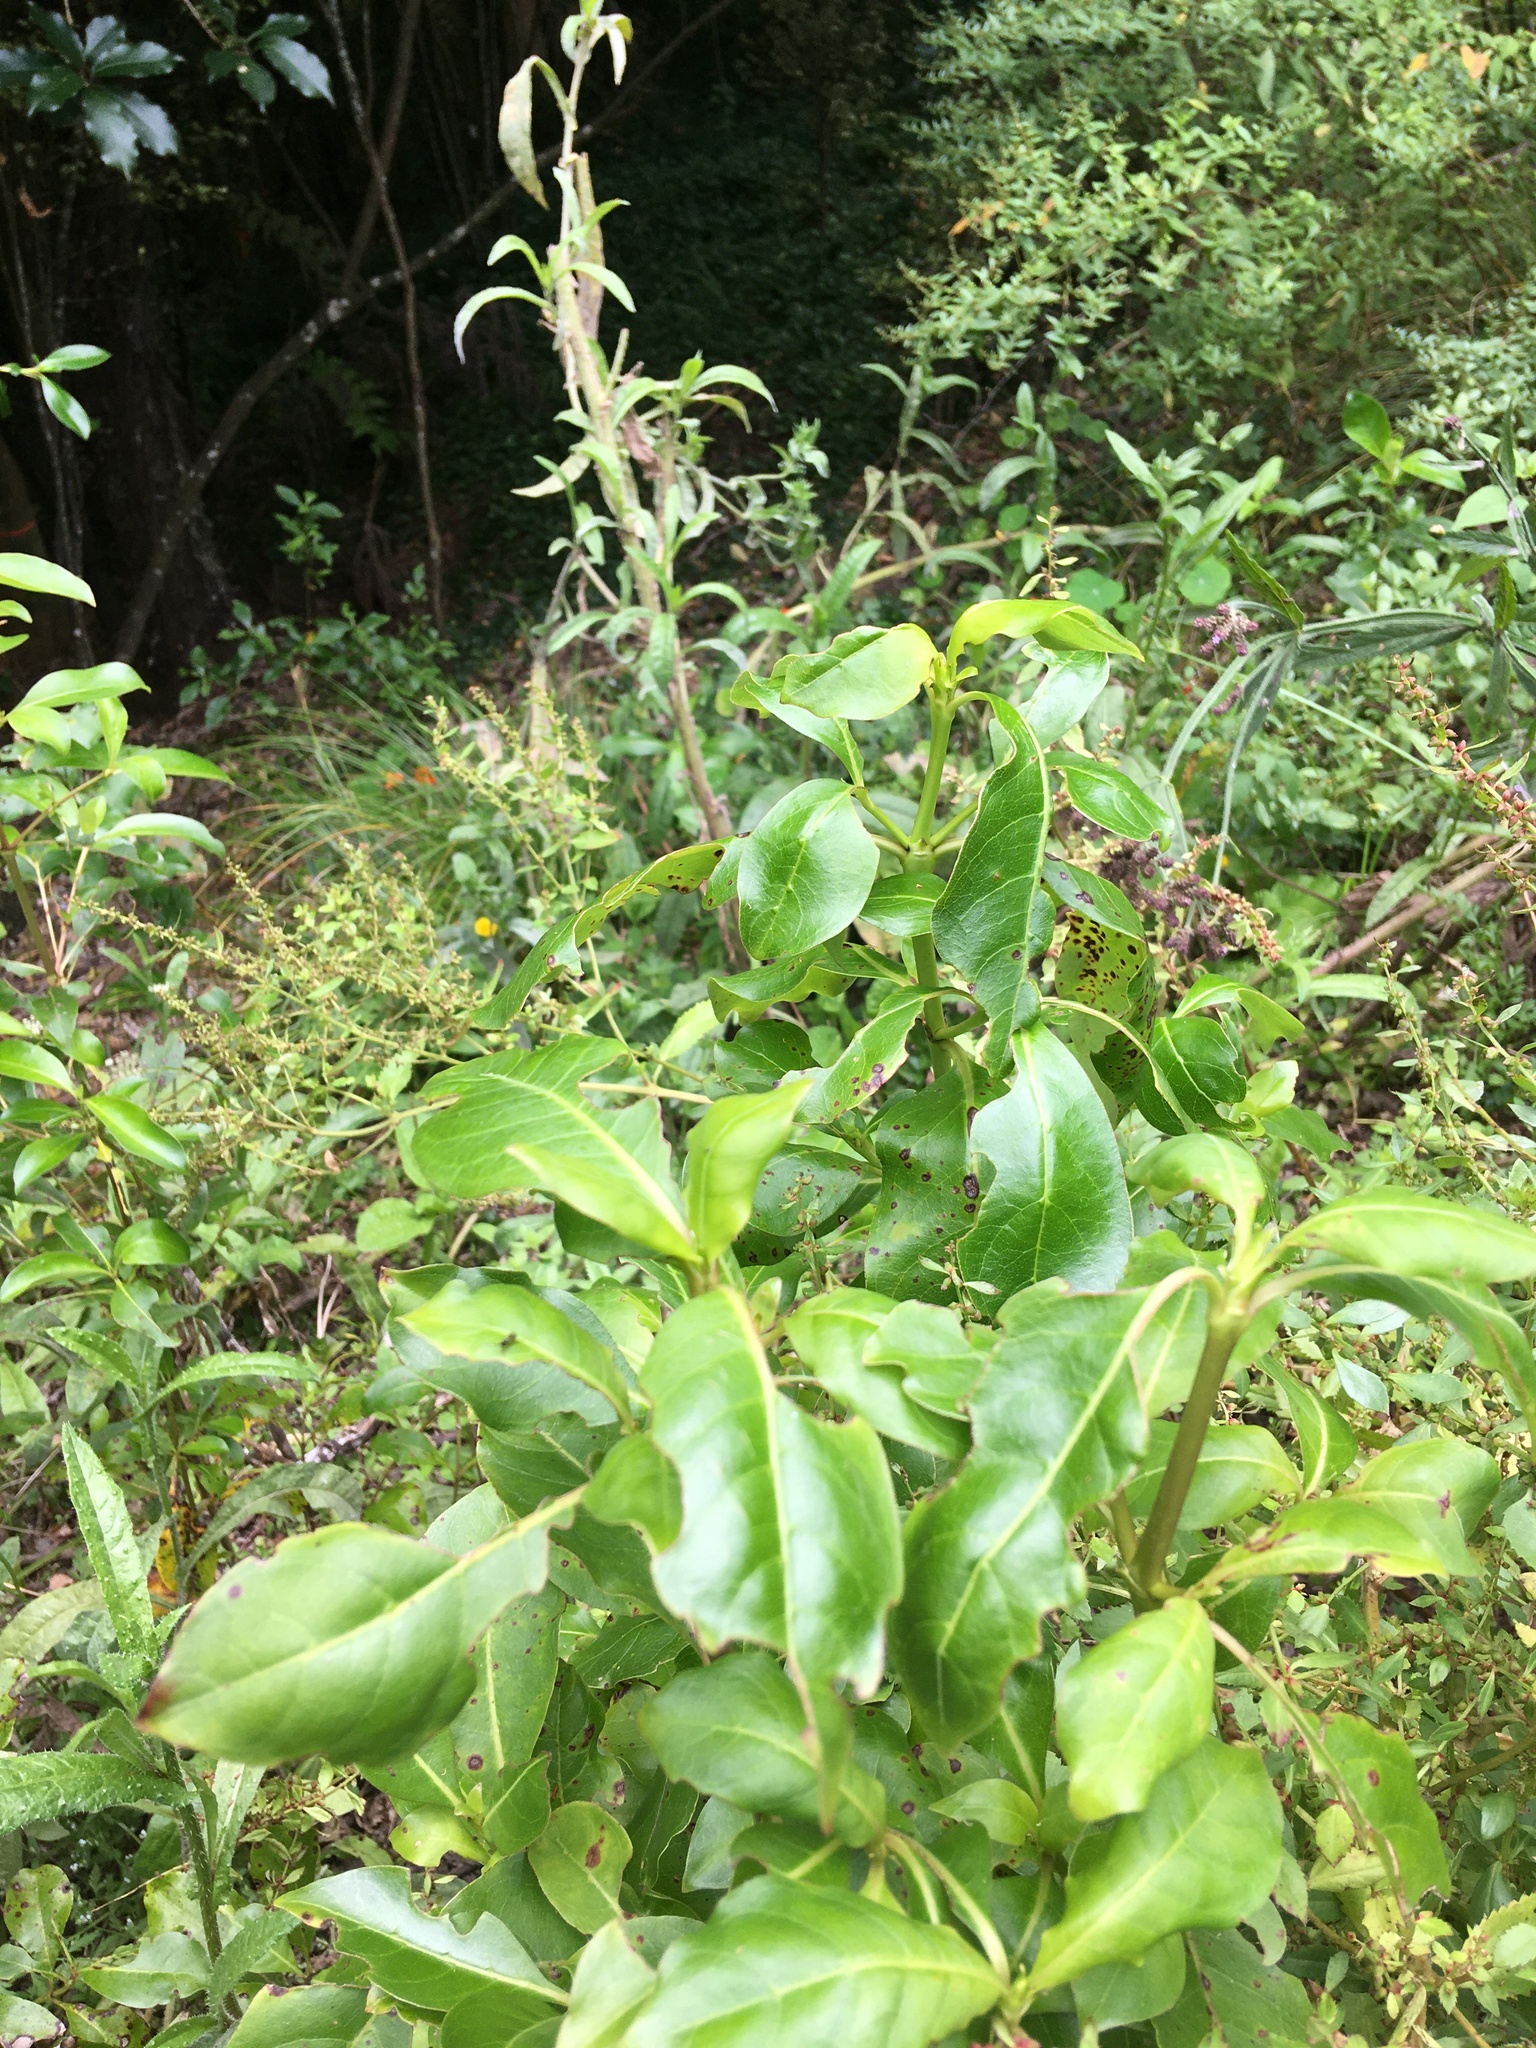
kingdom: Plantae
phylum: Tracheophyta
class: Magnoliopsida
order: Gentianales
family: Rubiaceae
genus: Coprosma
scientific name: Coprosma macrocarpa
